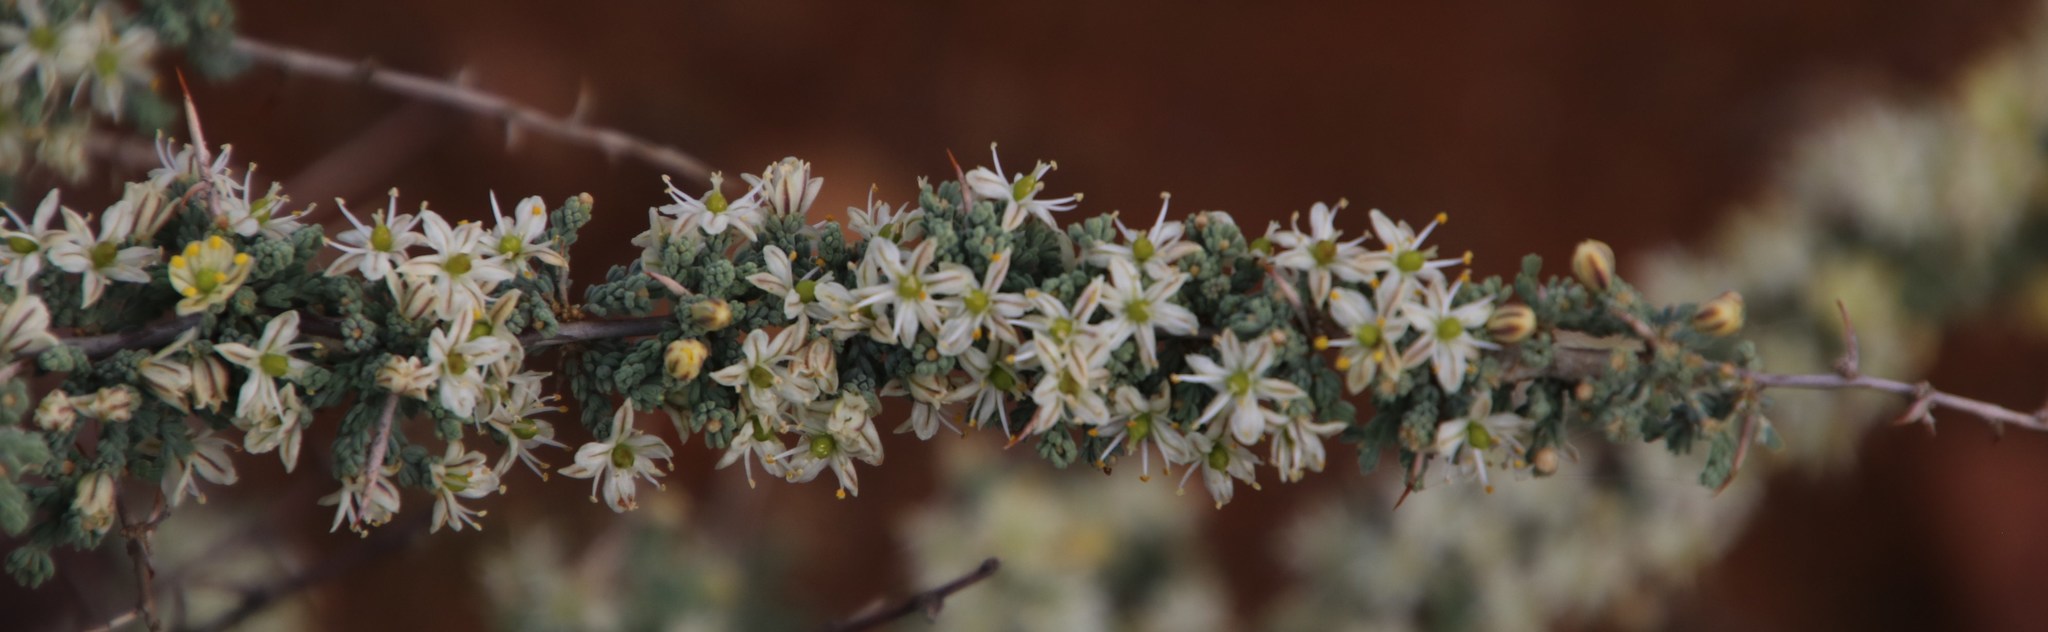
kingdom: Plantae
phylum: Tracheophyta
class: Liliopsida
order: Asparagales
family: Asparagaceae
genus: Asparagus
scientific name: Asparagus capensis
